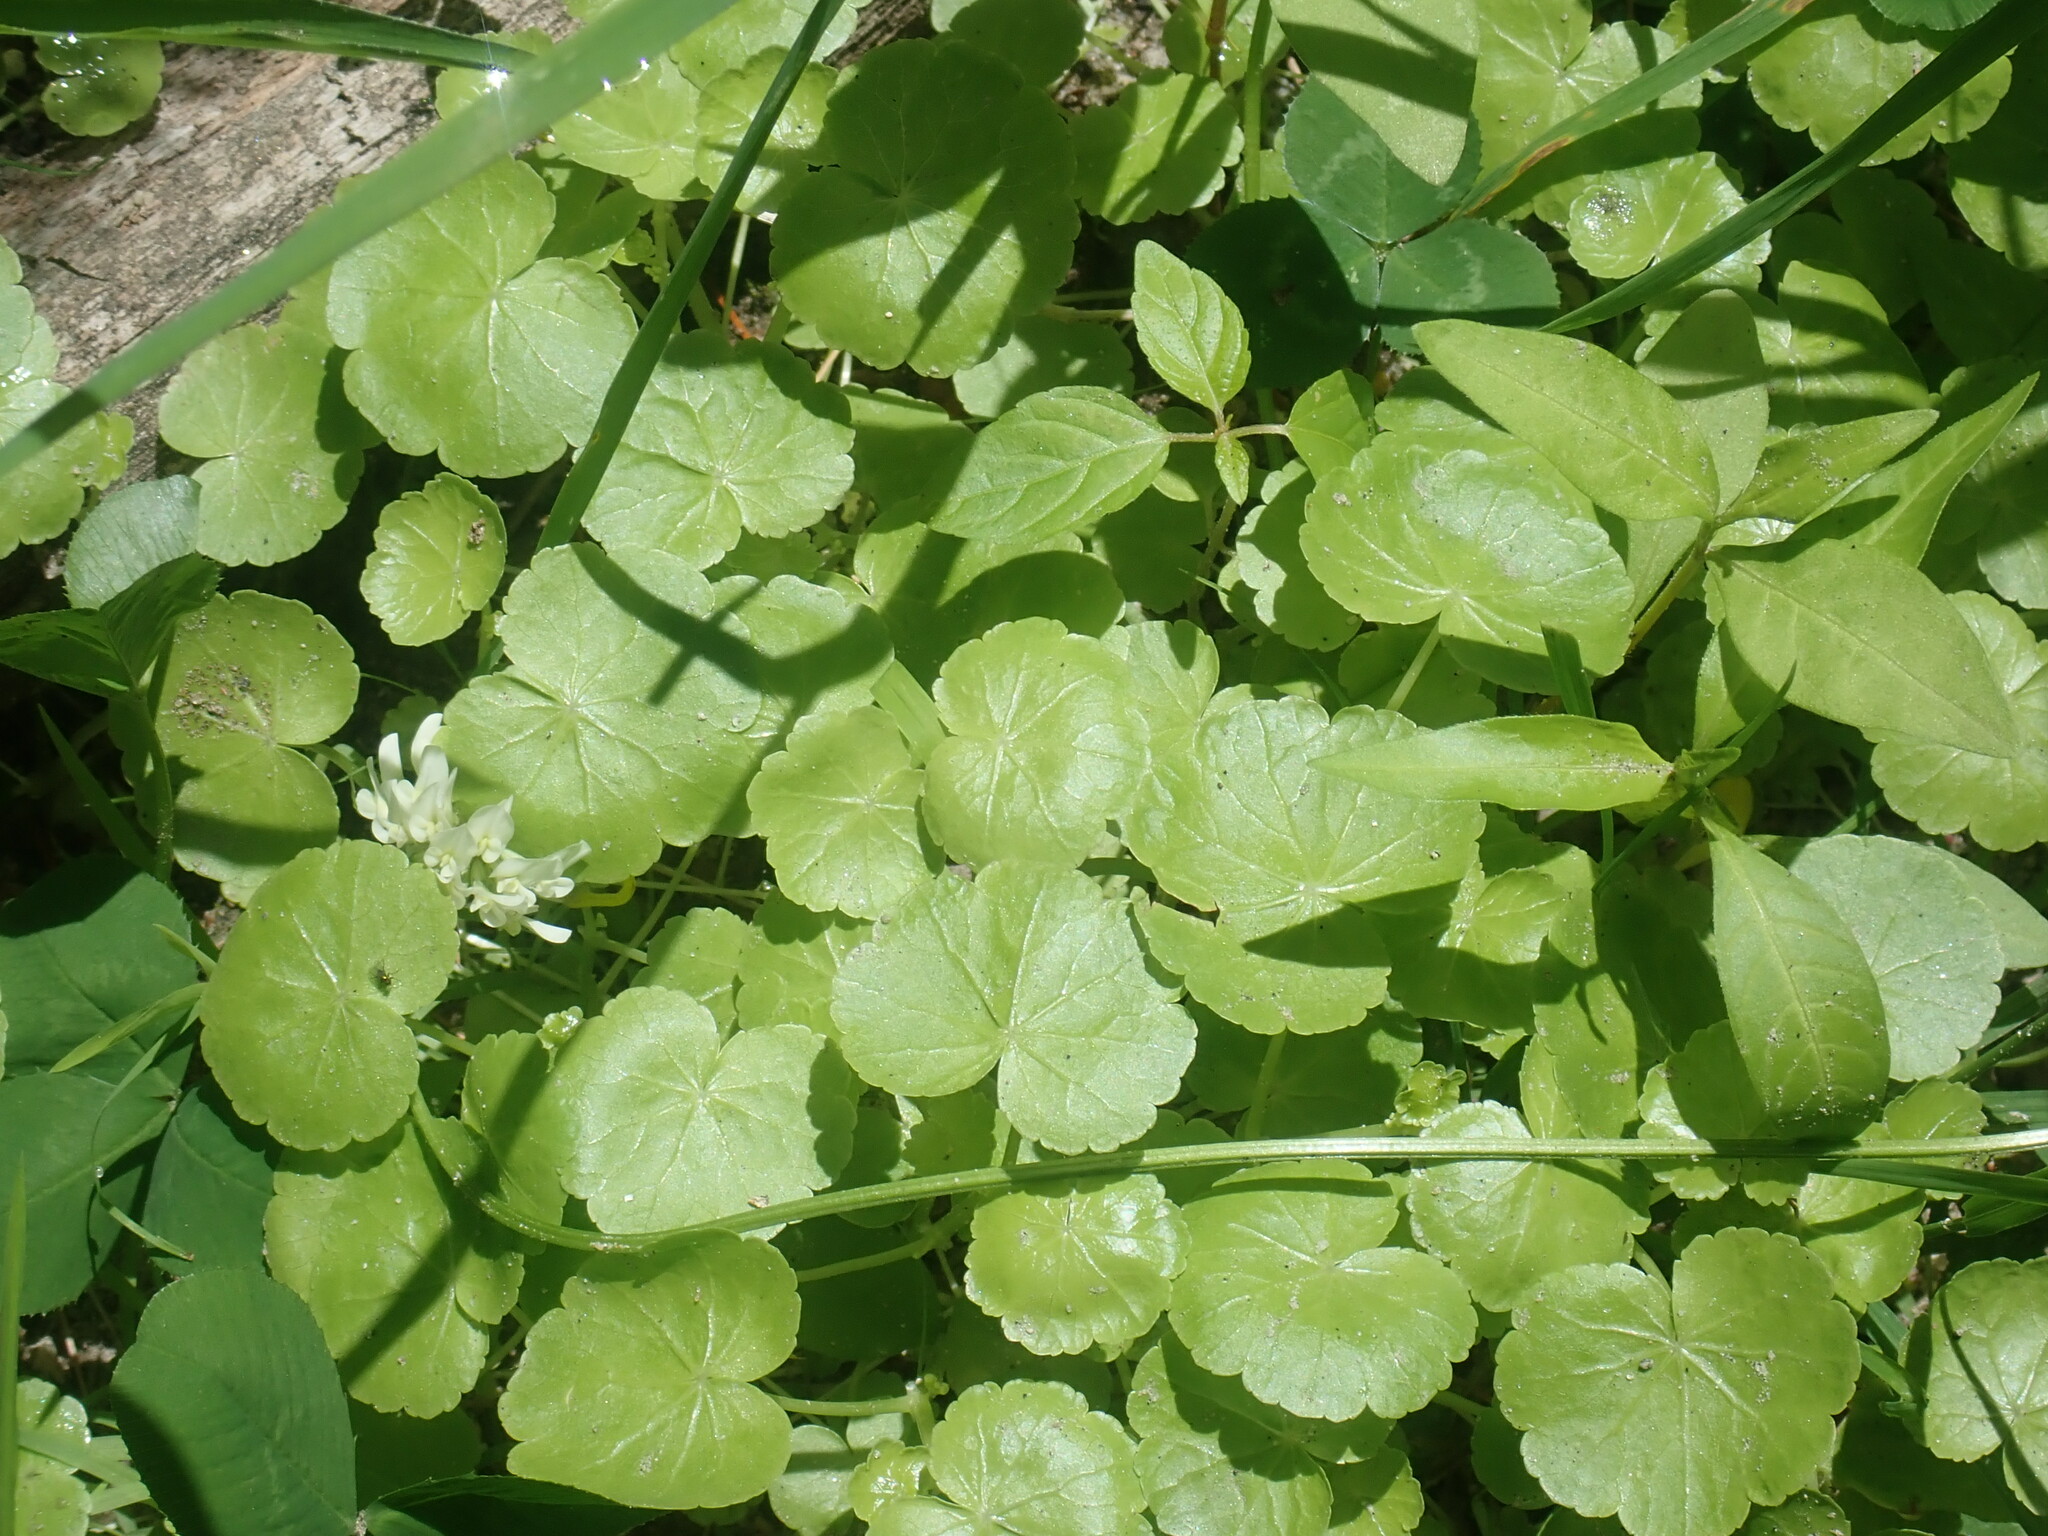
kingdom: Plantae
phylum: Tracheophyta
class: Magnoliopsida
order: Apiales
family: Araliaceae
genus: Hydrocotyle
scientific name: Hydrocotyle americana
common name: American water-pennywort
